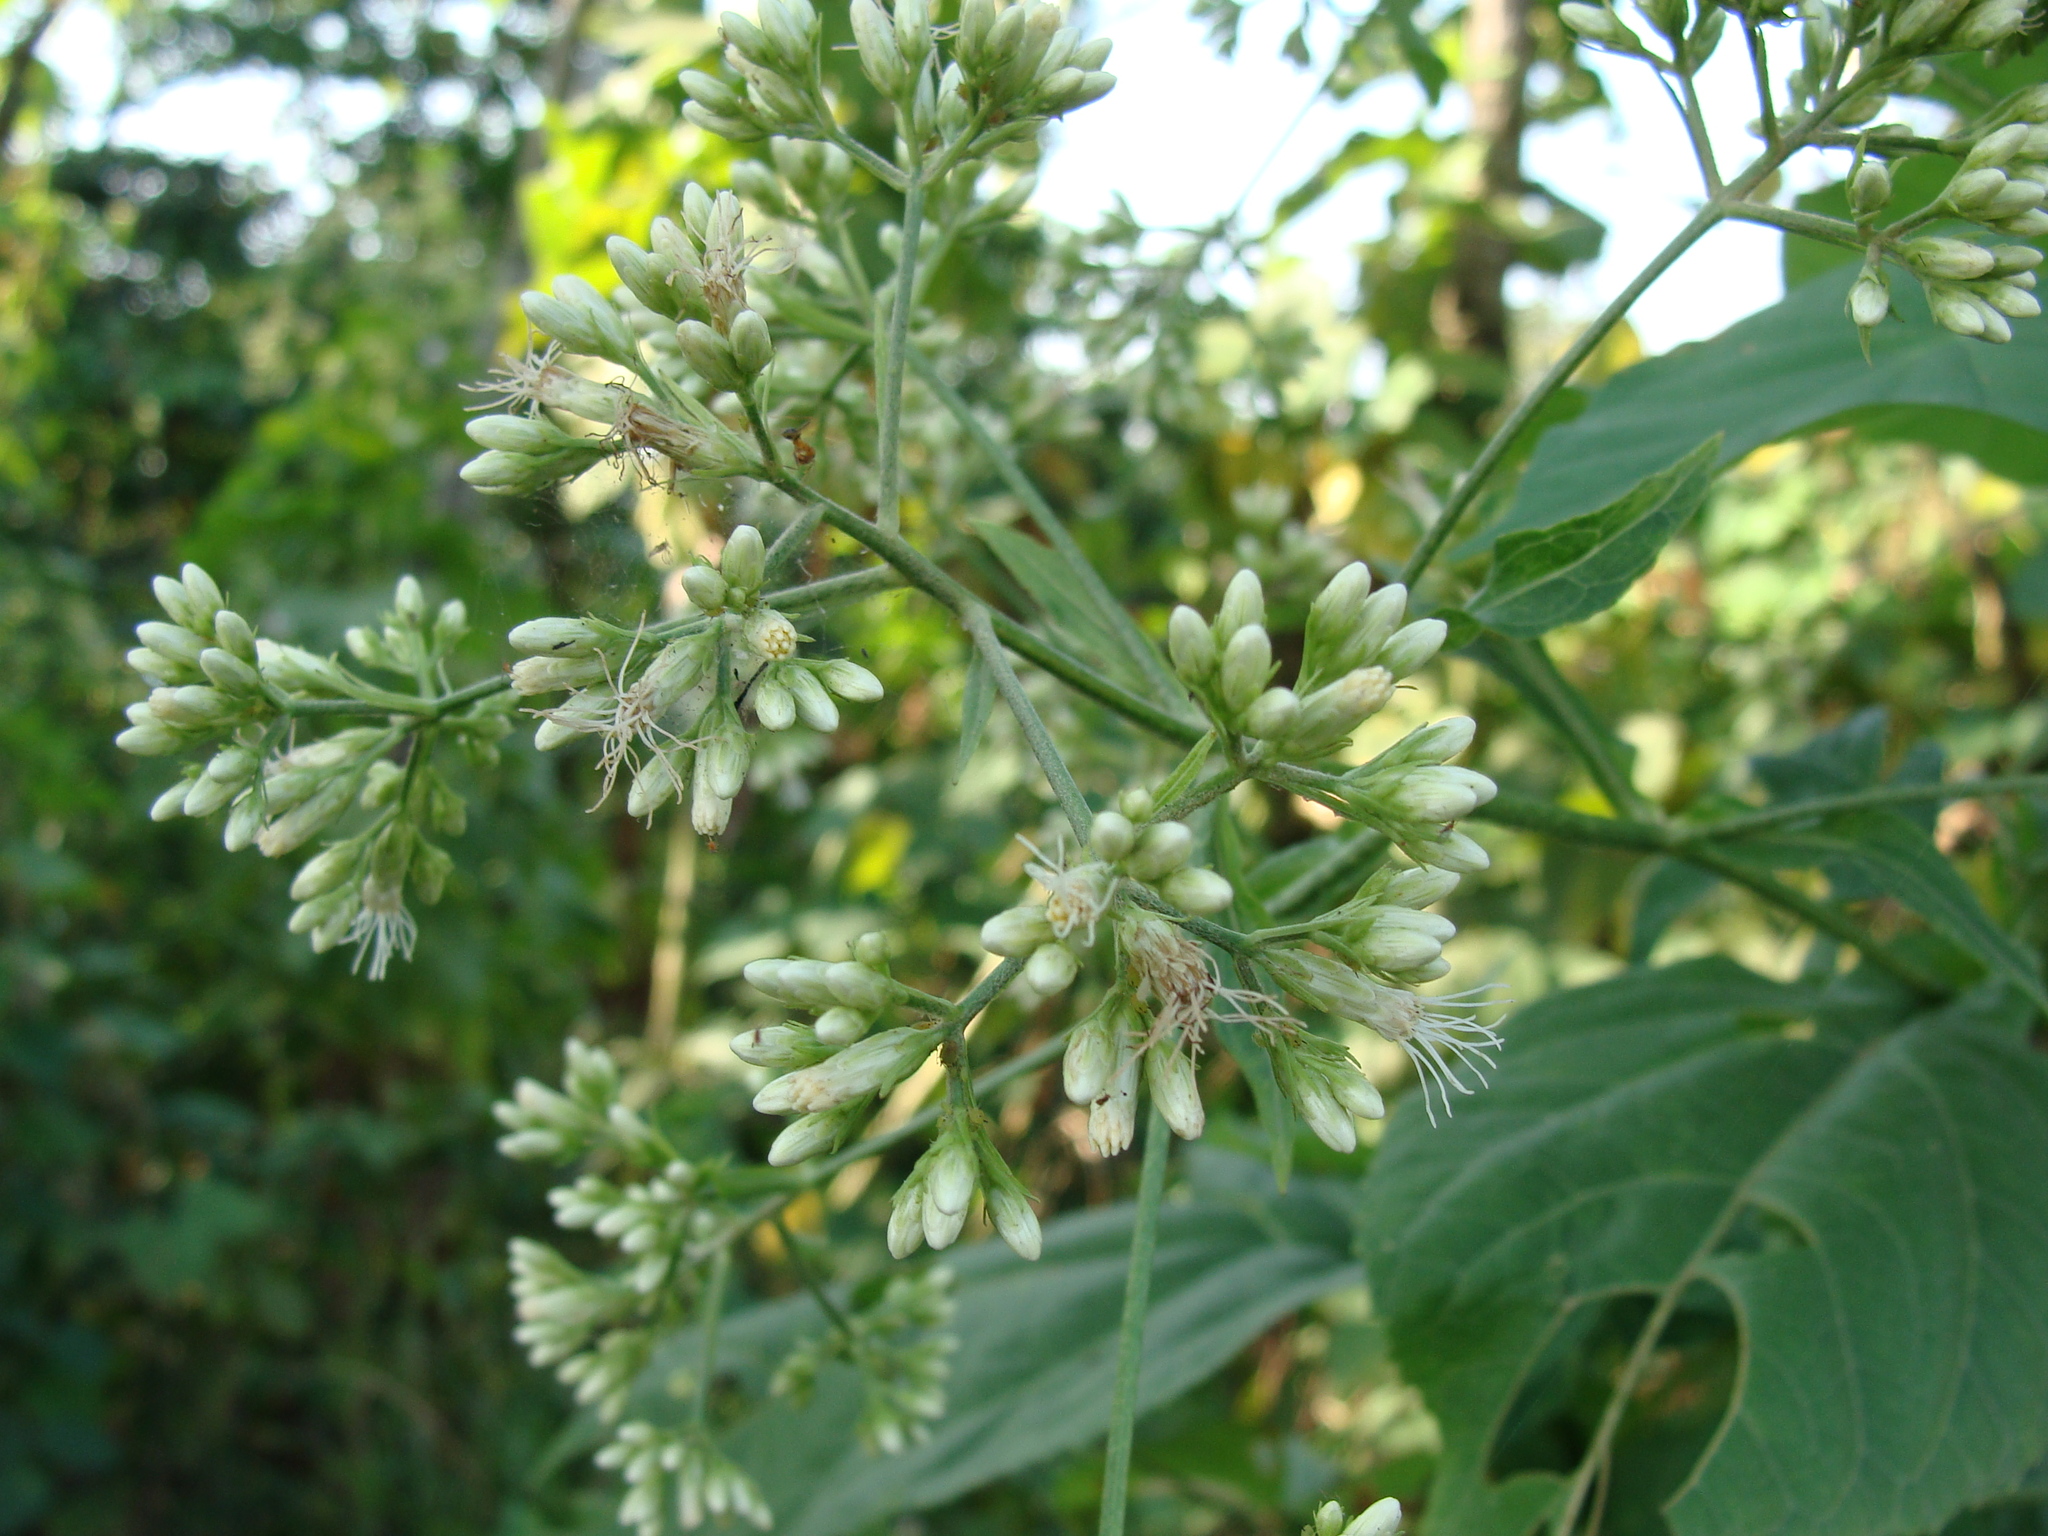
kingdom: Plantae
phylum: Tracheophyta
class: Magnoliopsida
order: Asterales
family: Asteraceae
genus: Critonia
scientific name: Critonia quadrangularis
